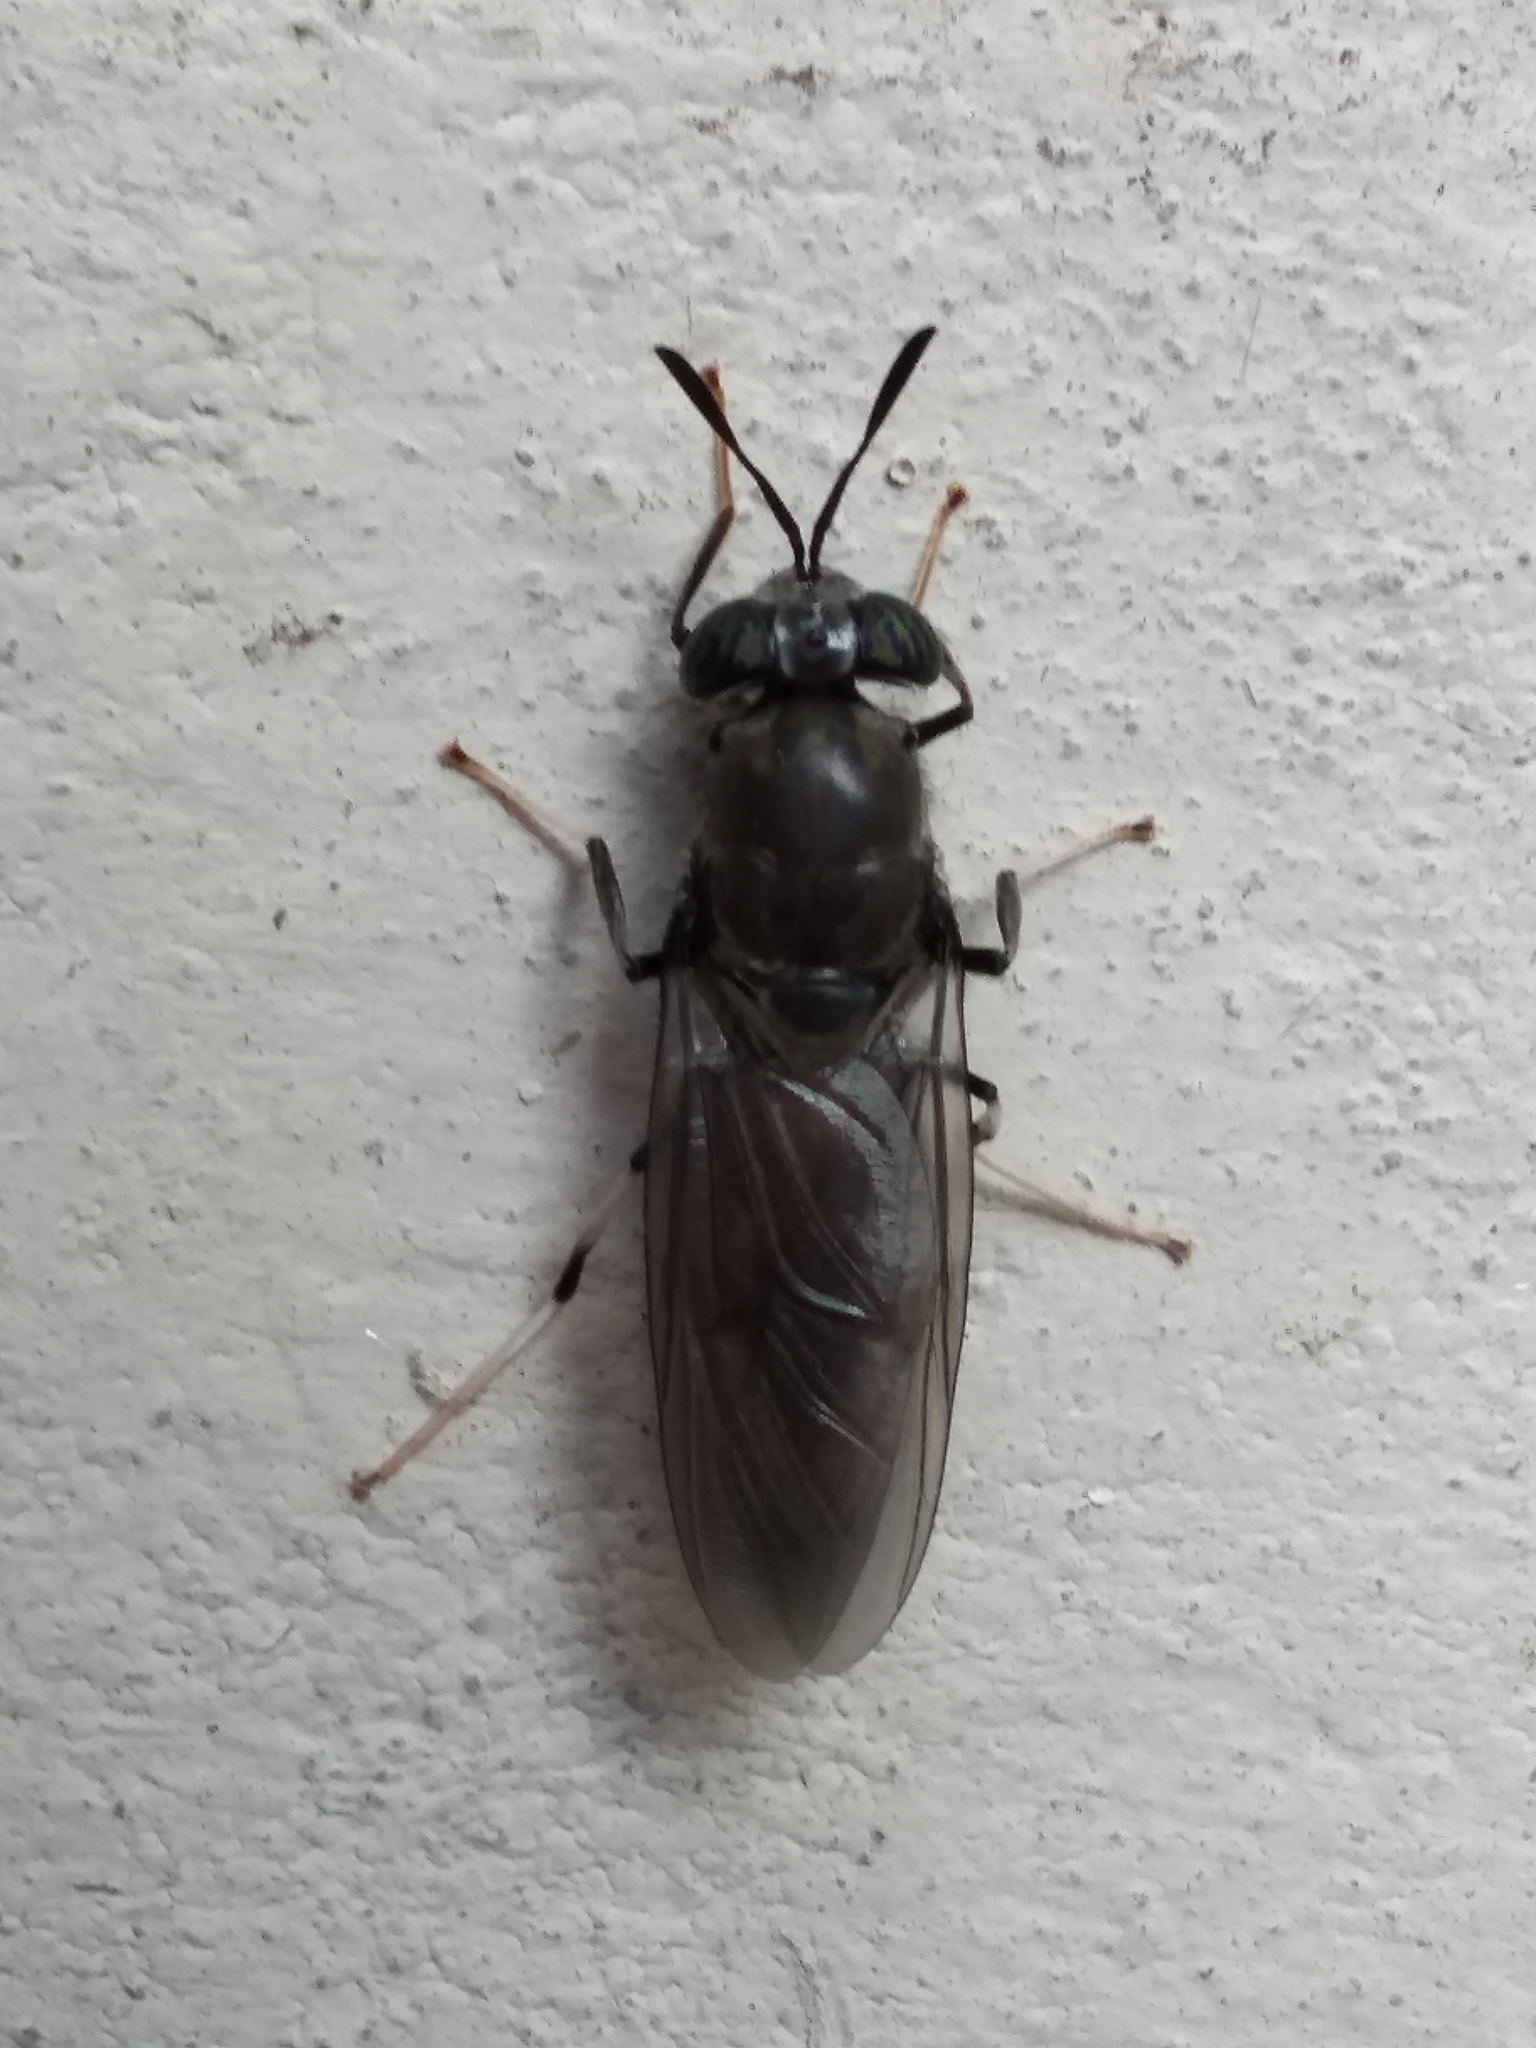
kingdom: Animalia
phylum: Arthropoda
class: Insecta
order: Diptera
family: Stratiomyidae
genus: Hermetia
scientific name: Hermetia illucens
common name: Black soldier fly
